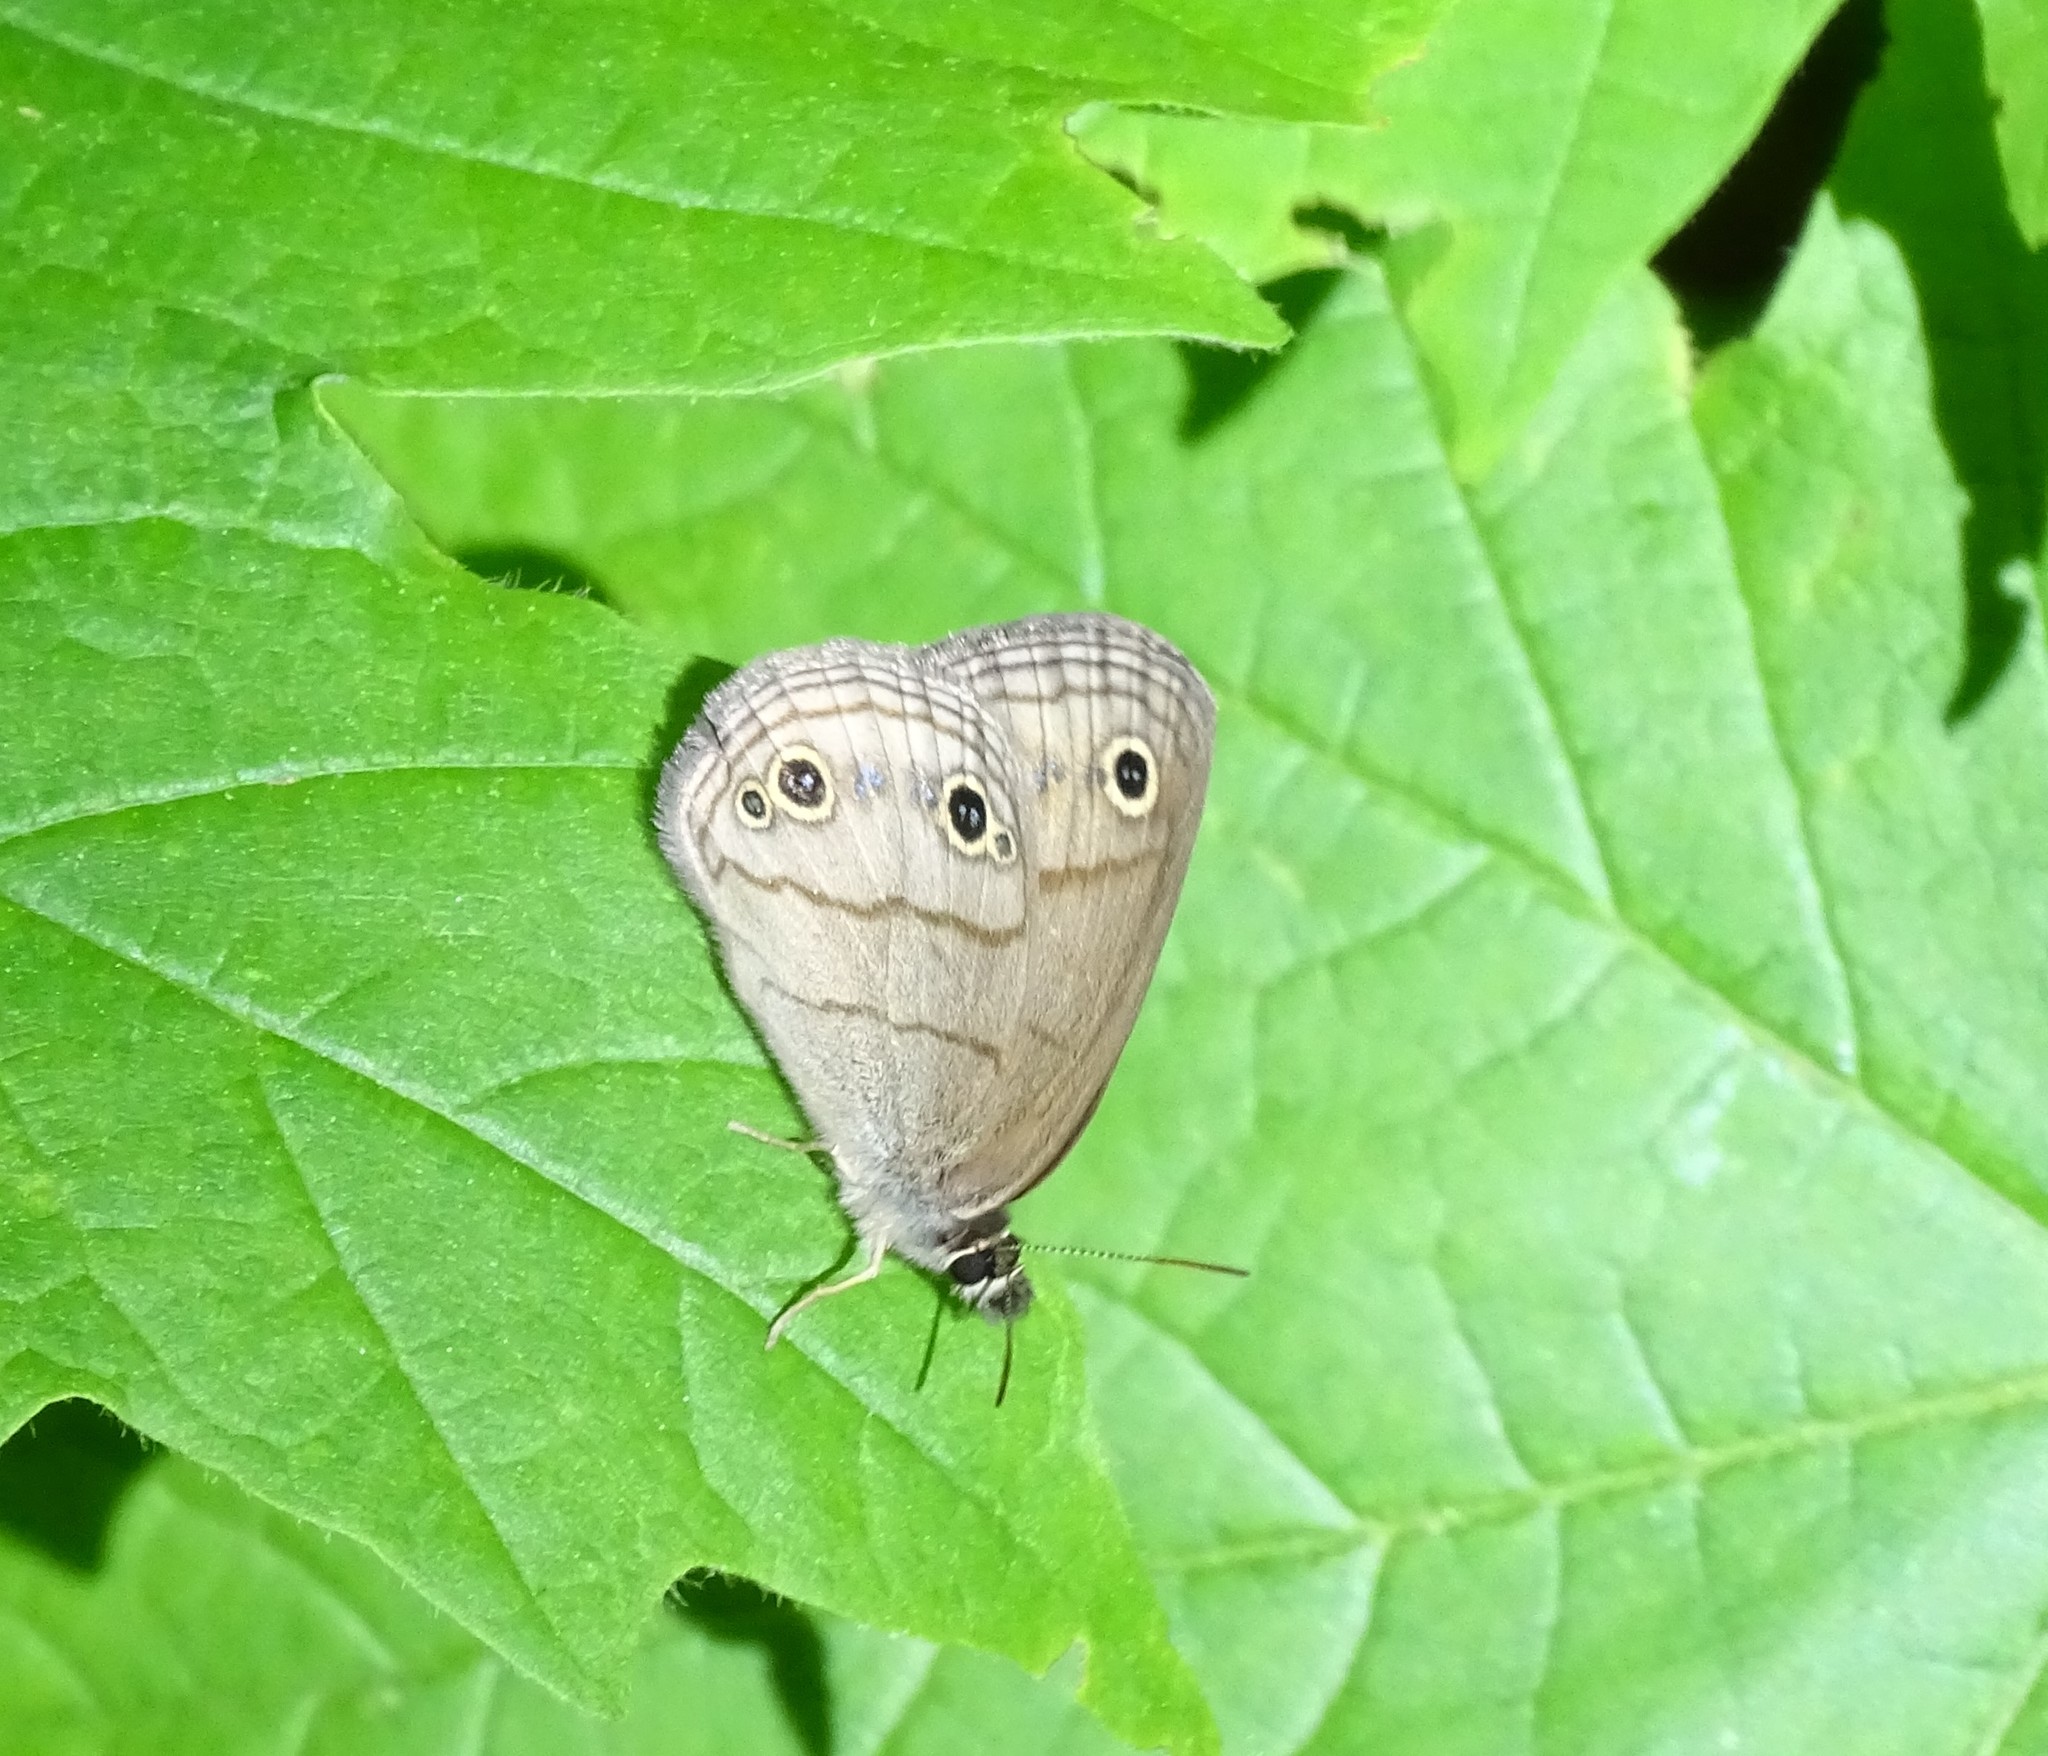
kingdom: Animalia
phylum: Arthropoda
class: Insecta
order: Lepidoptera
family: Nymphalidae
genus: Euptychia
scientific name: Euptychia cymela
